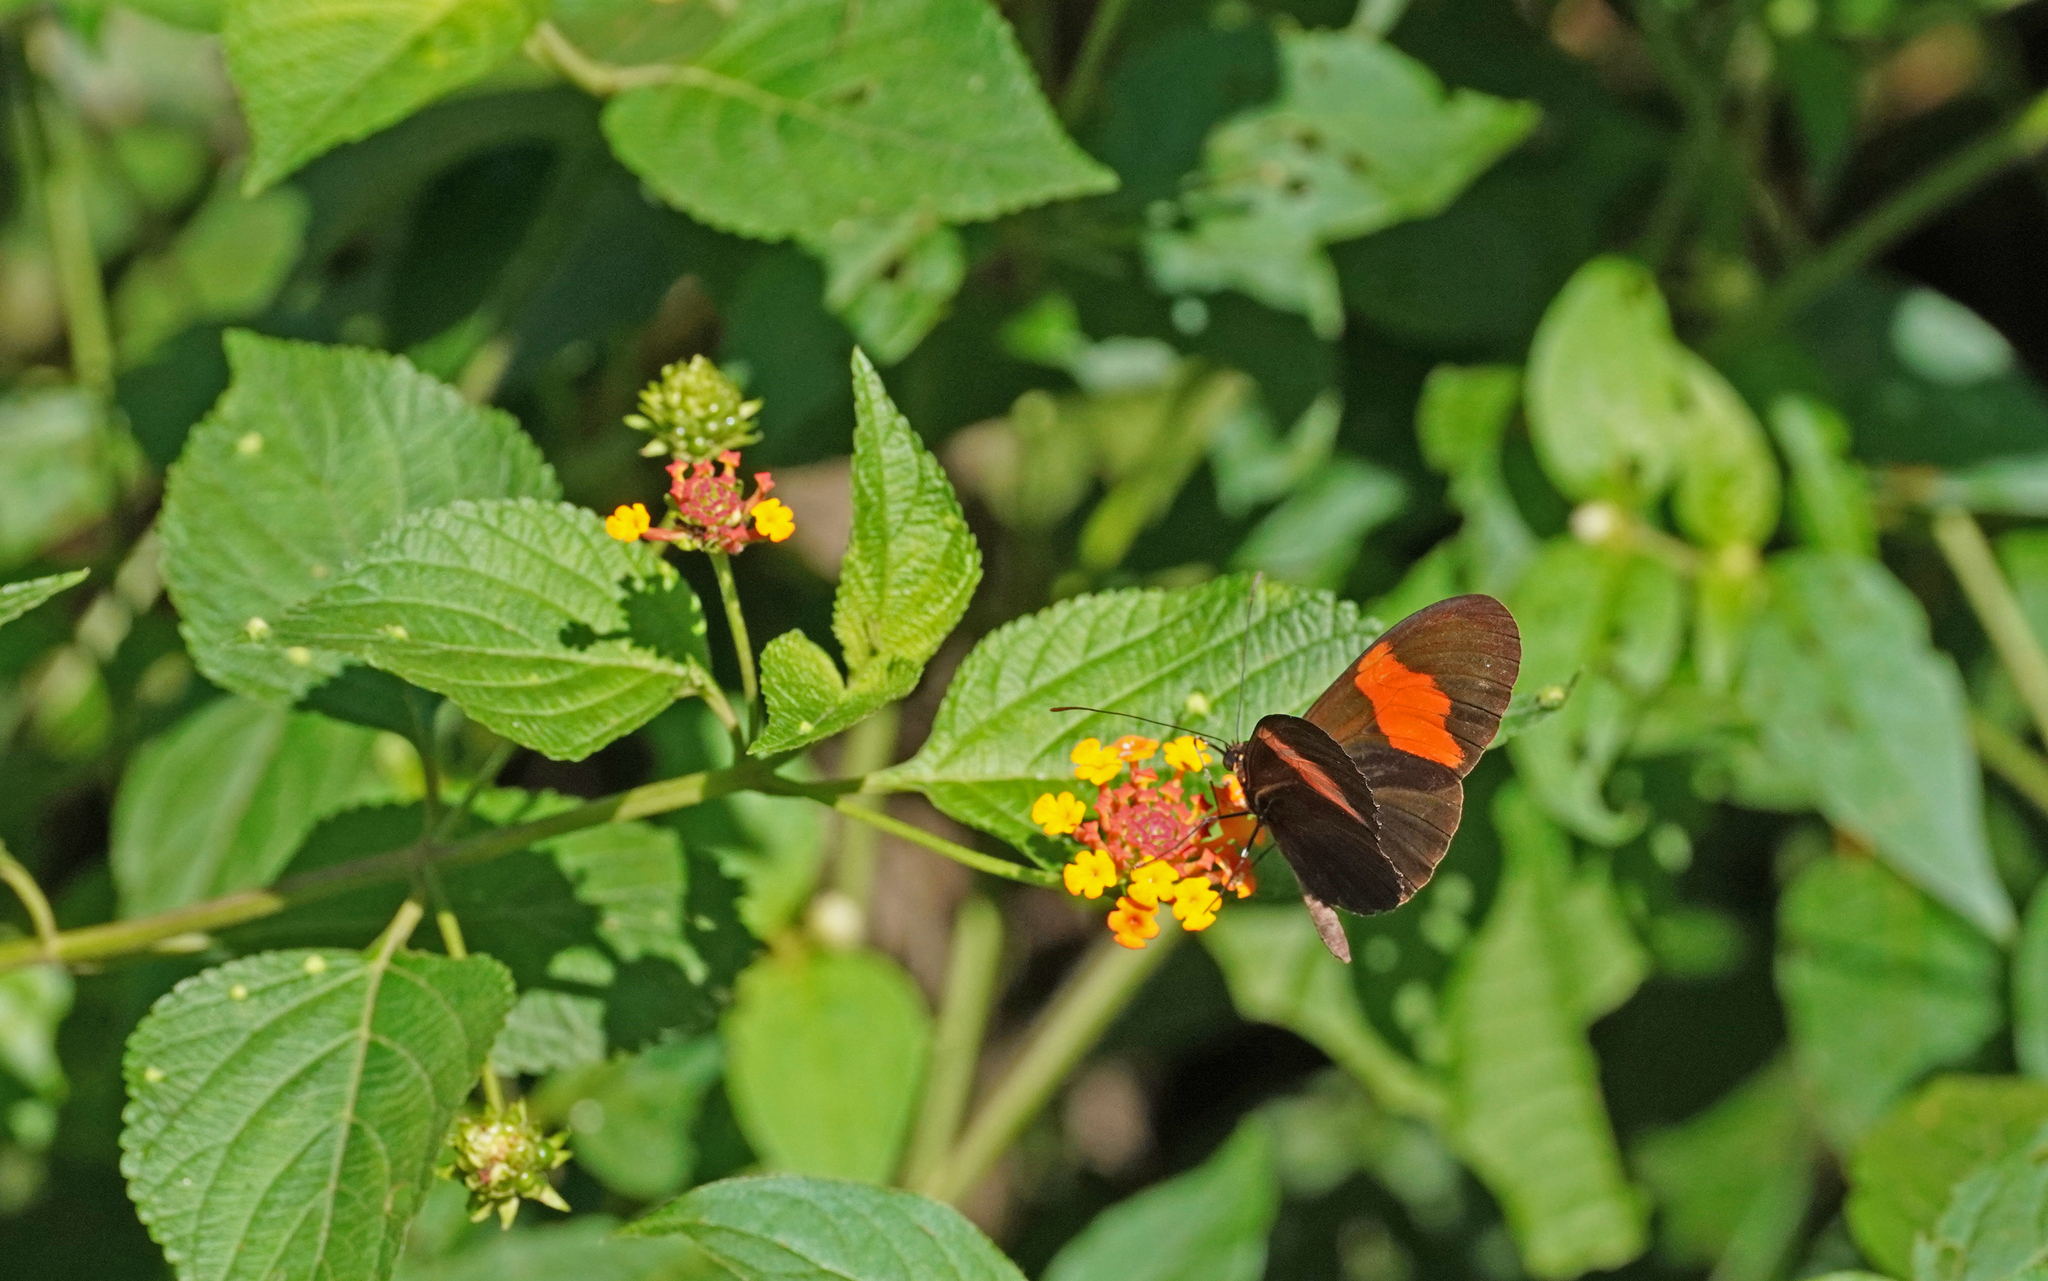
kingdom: Animalia
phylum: Arthropoda
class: Insecta
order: Lepidoptera
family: Nymphalidae
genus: Heliconius
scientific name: Heliconius melpomene
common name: Postman
